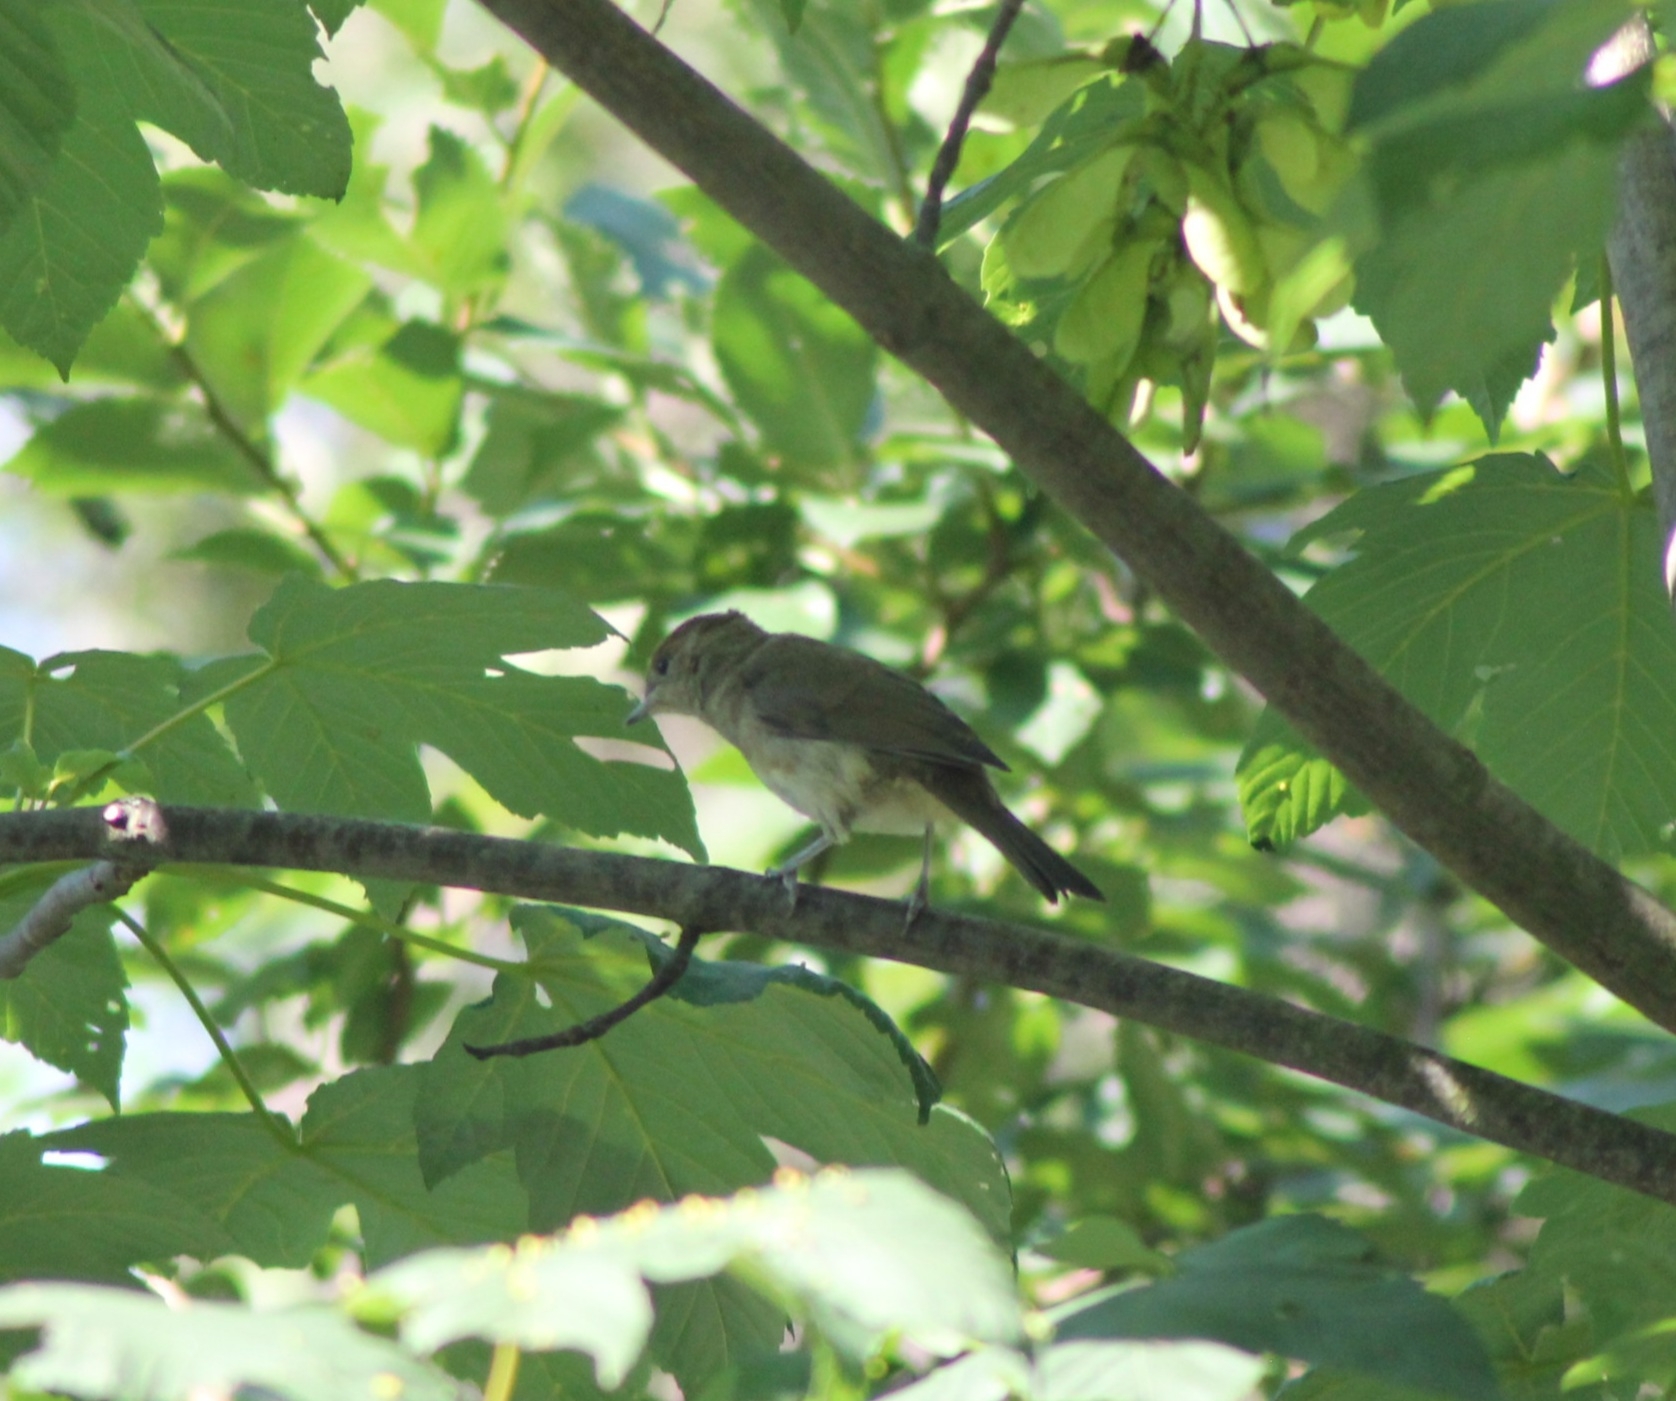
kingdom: Animalia
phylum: Chordata
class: Aves
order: Passeriformes
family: Sylviidae
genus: Sylvia
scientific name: Sylvia atricapilla
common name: Eurasian blackcap
